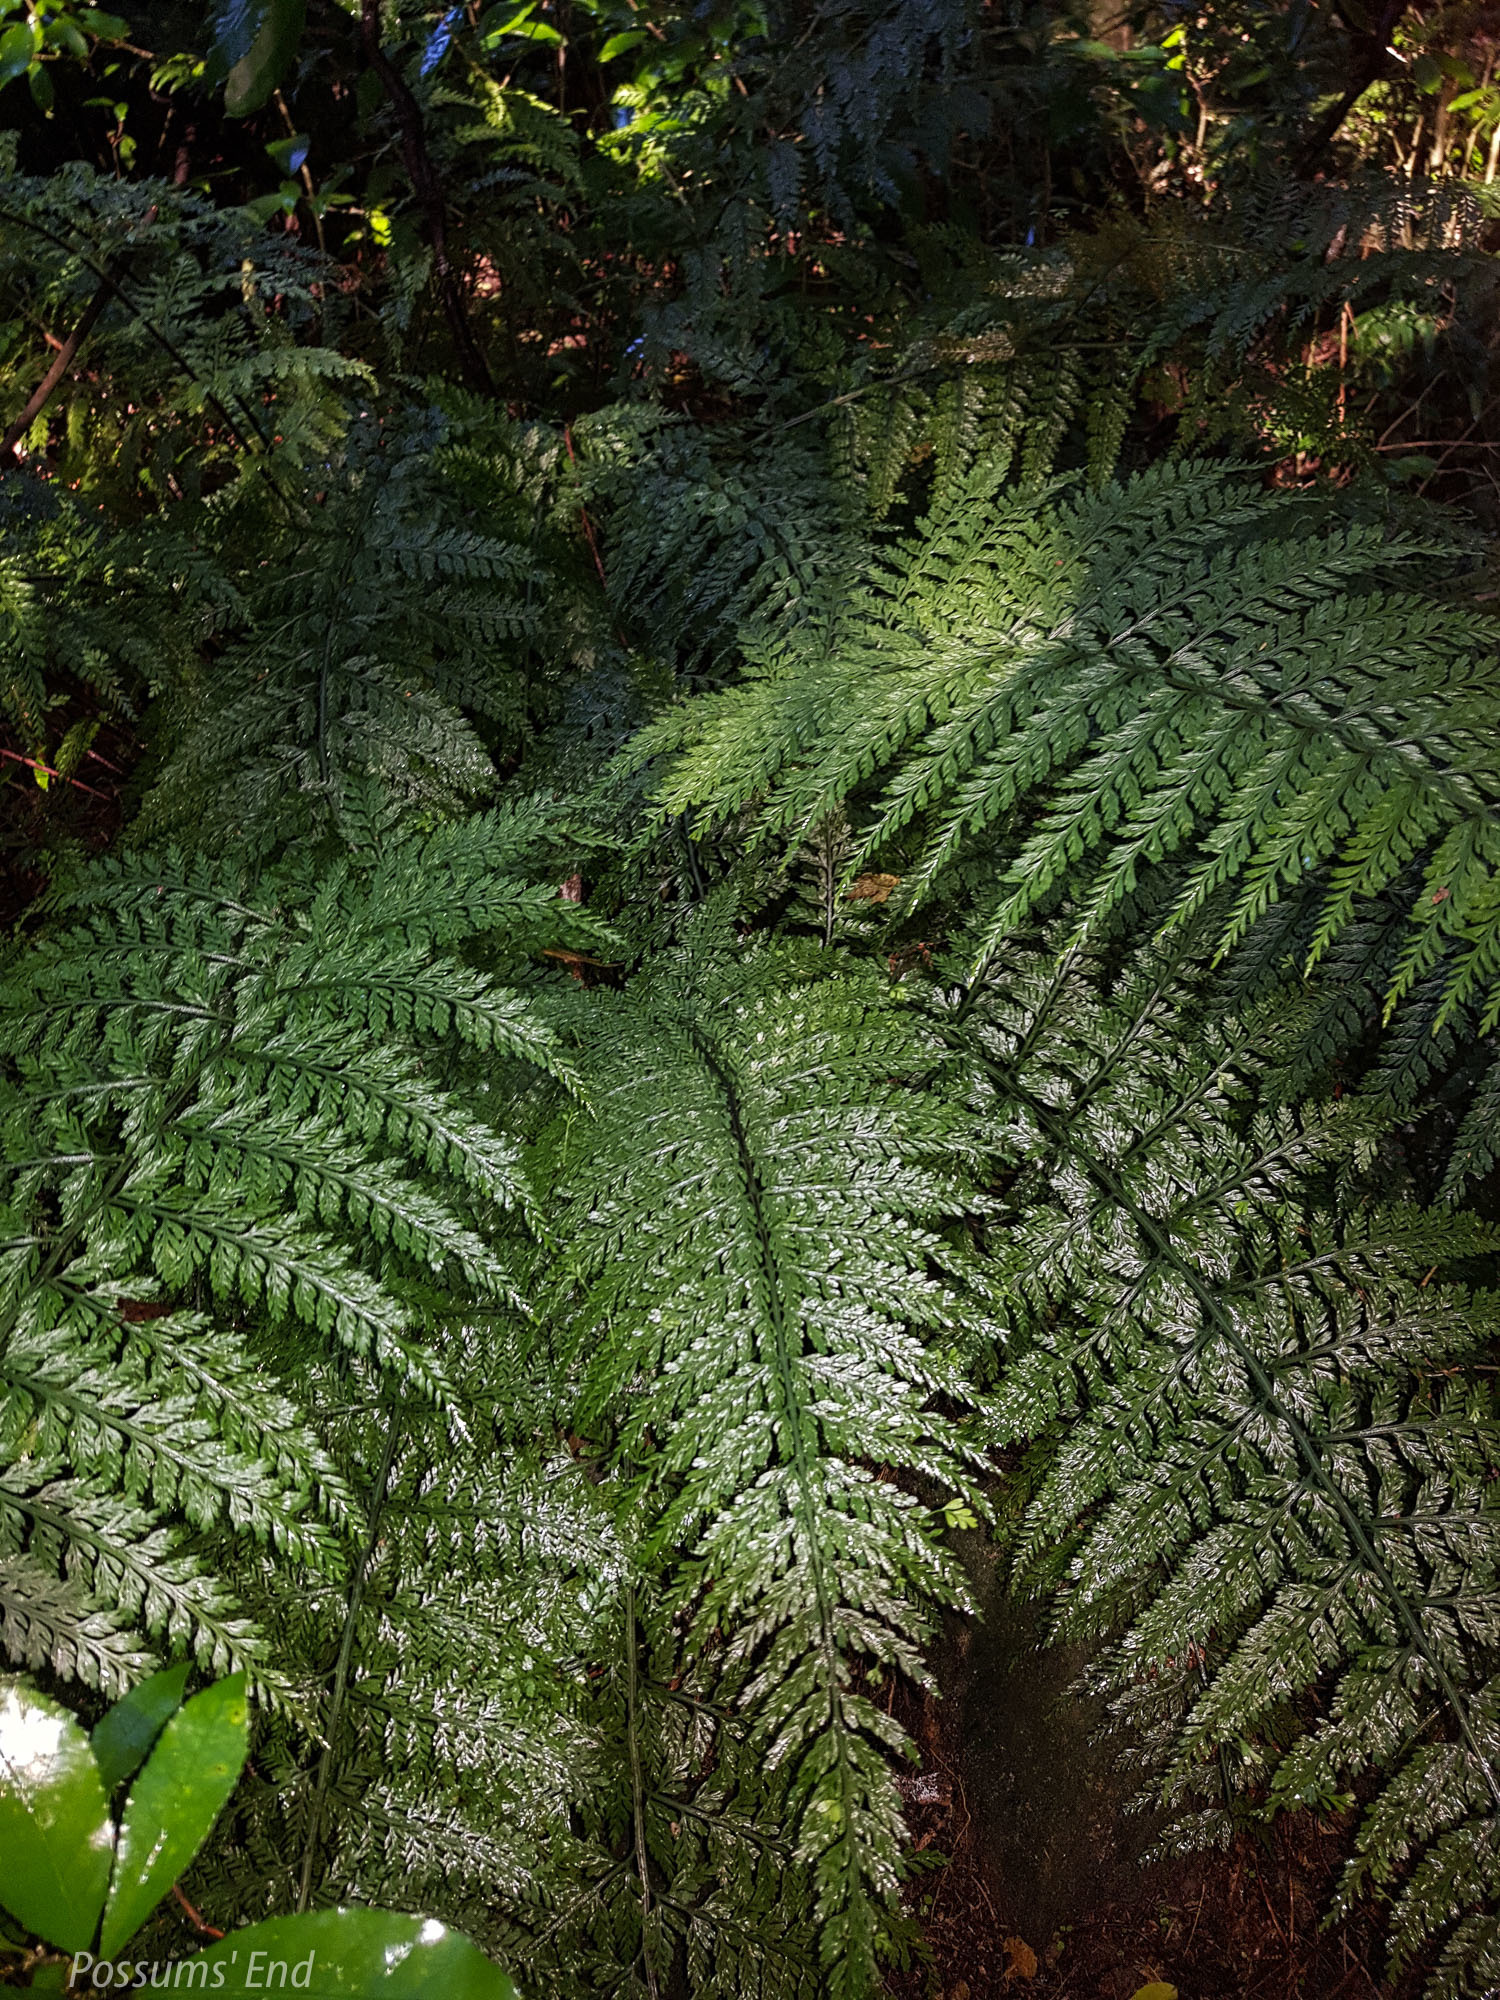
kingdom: Plantae
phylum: Tracheophyta
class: Polypodiopsida
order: Polypodiales
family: Aspleniaceae
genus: Asplenium
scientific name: Asplenium
